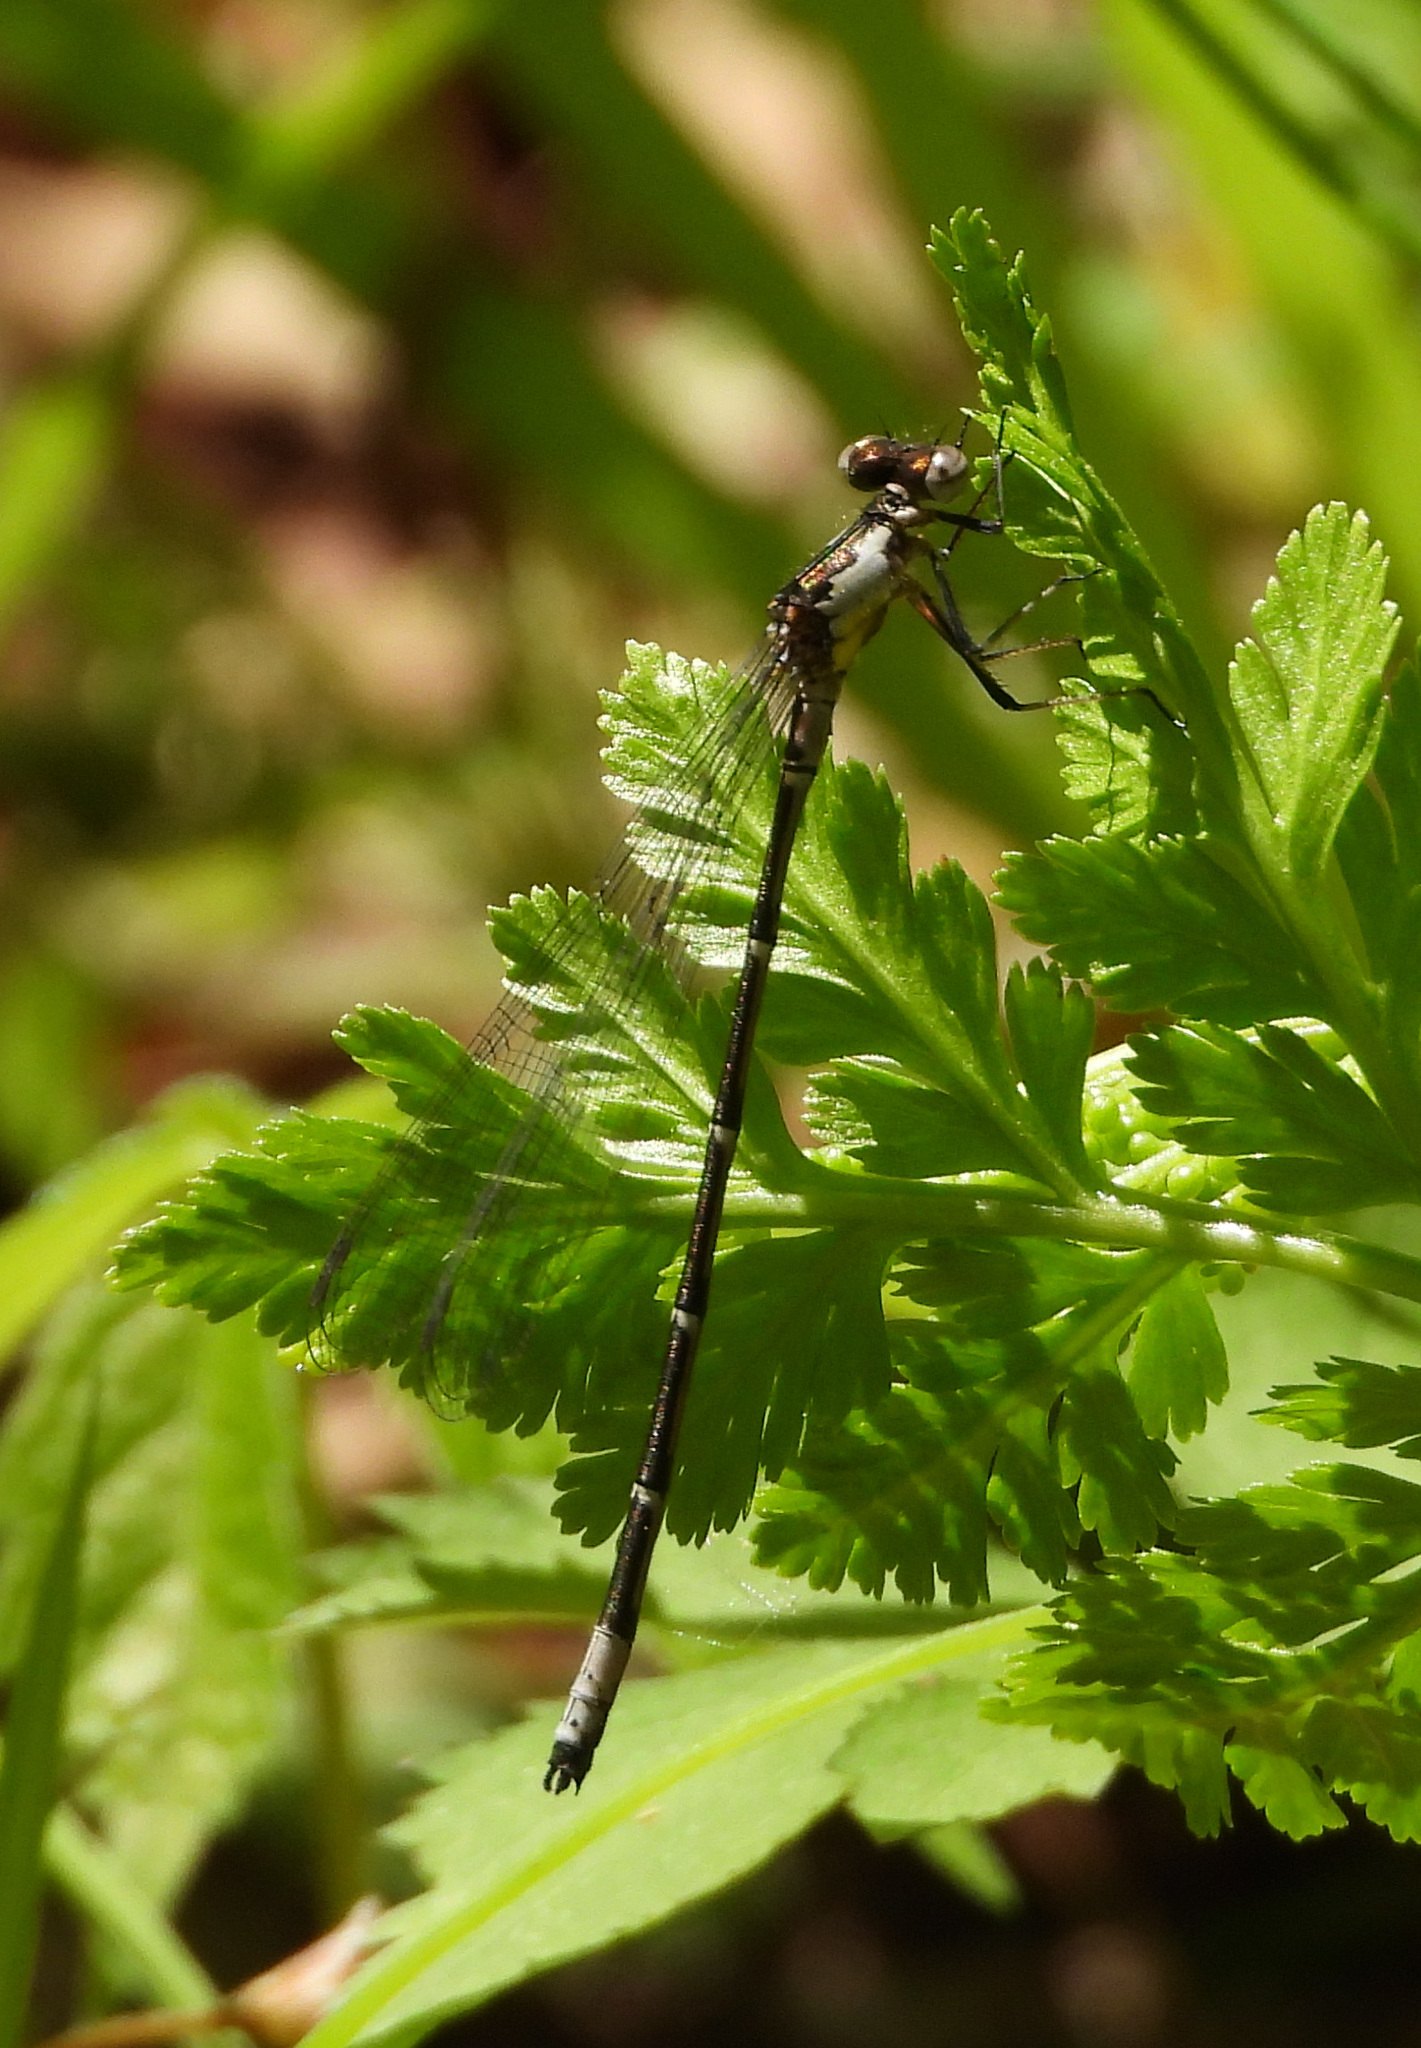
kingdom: Animalia
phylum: Arthropoda
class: Insecta
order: Odonata
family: Coenagrionidae
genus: Chromagrion
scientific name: Chromagrion conditum
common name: Aurora damsel
